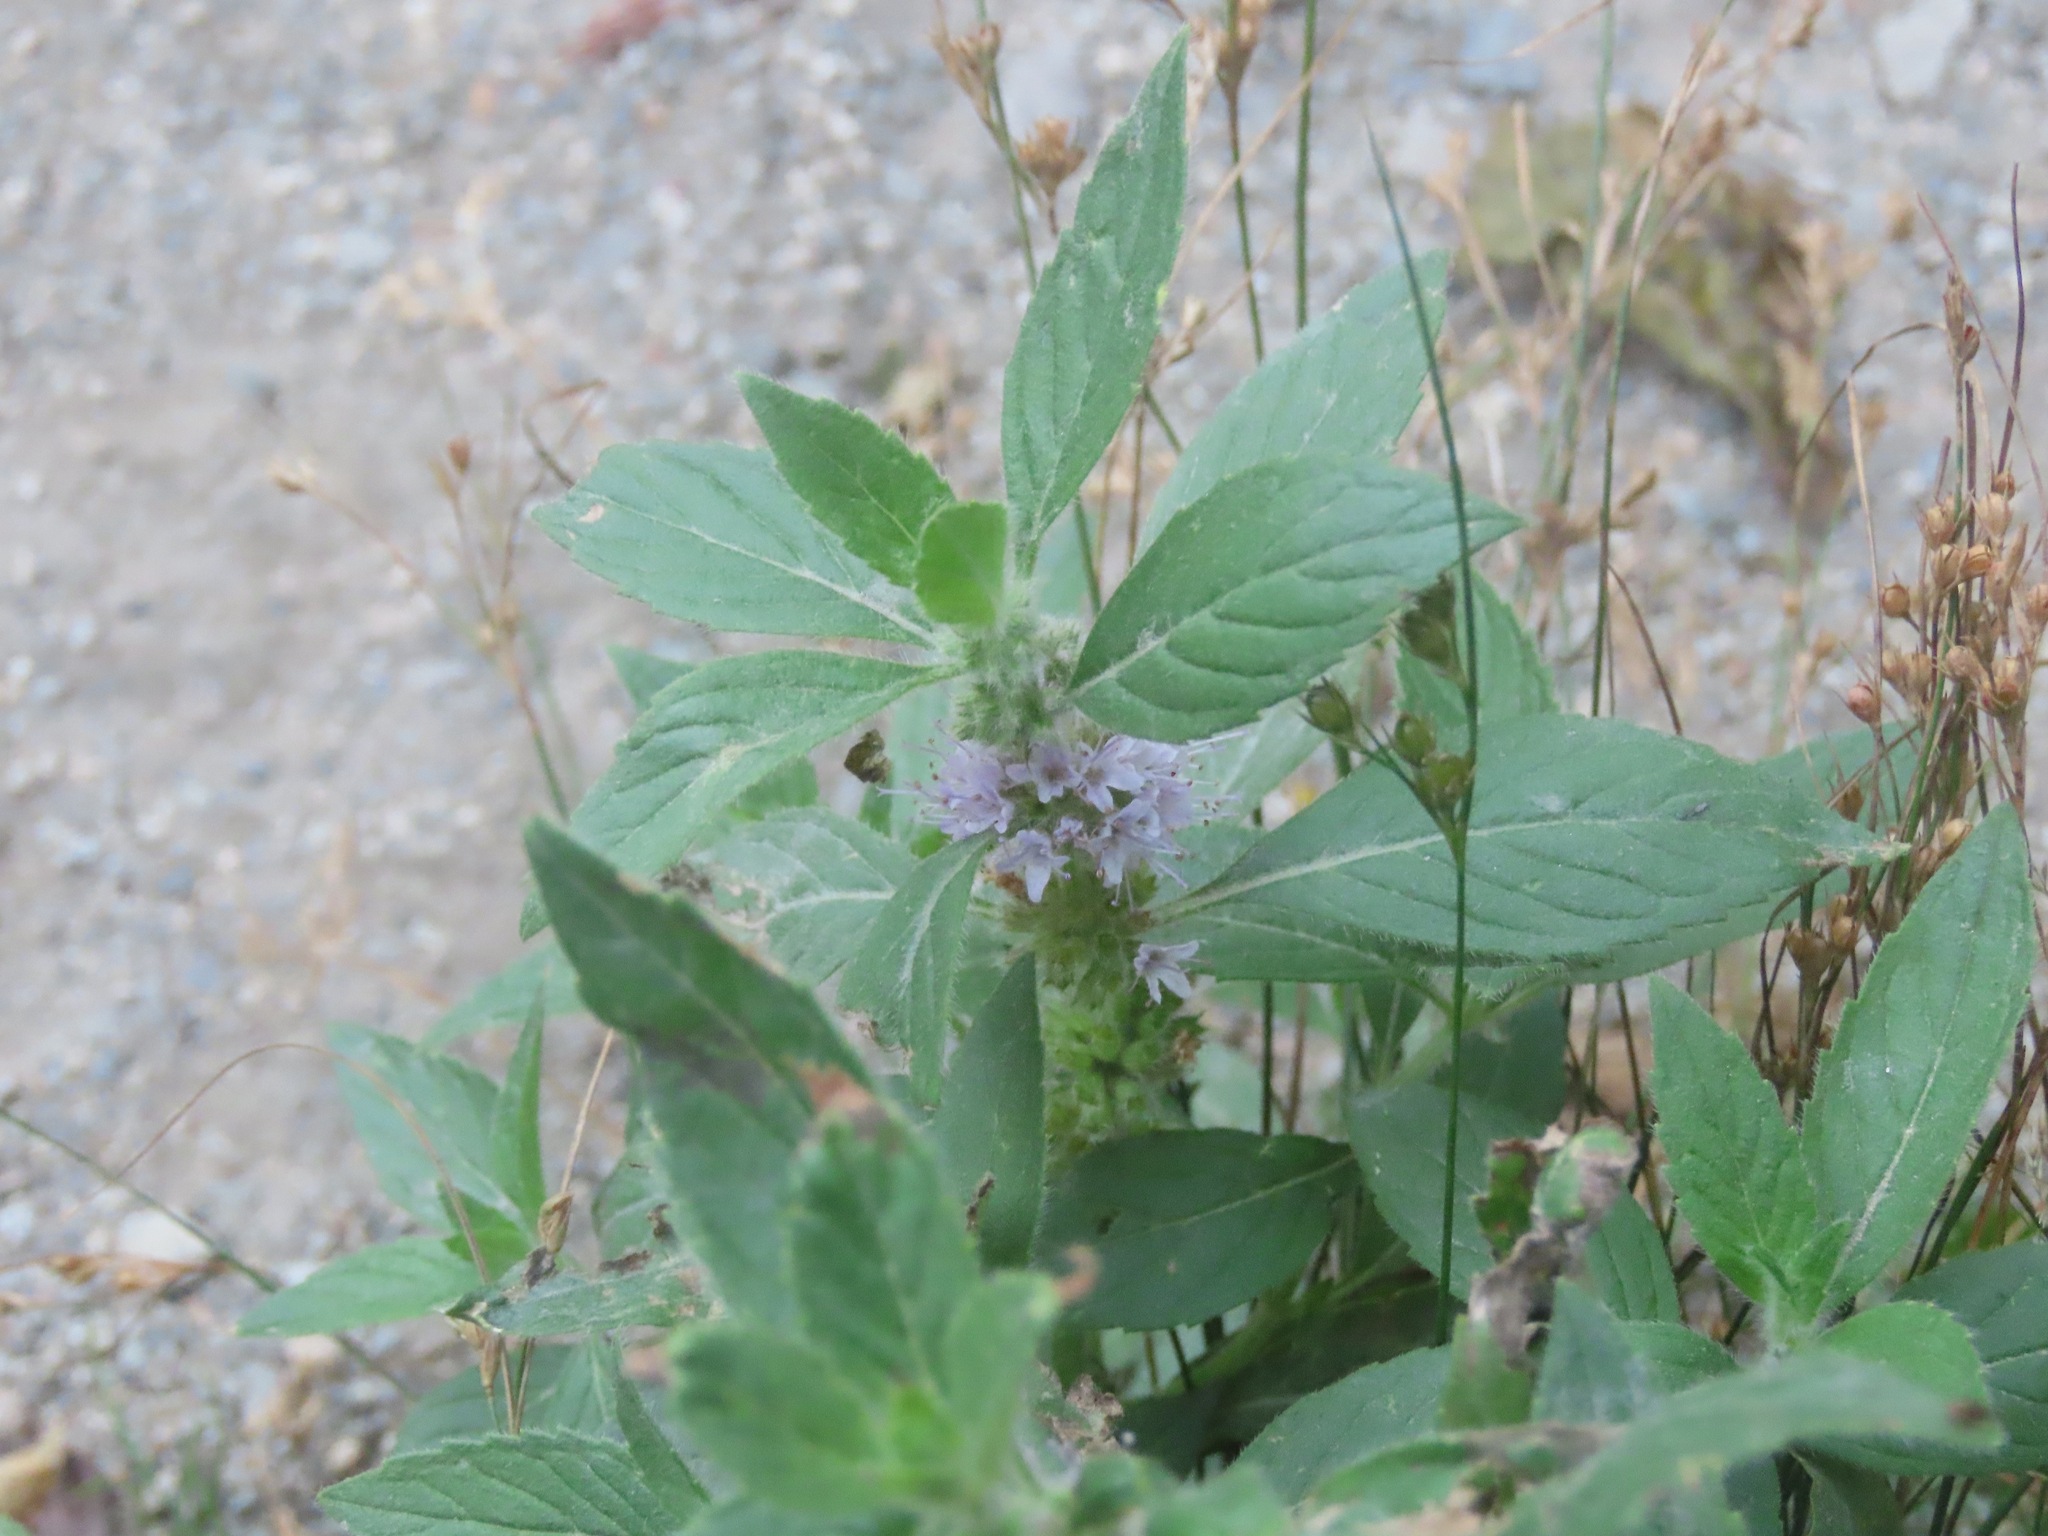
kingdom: Plantae
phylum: Tracheophyta
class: Magnoliopsida
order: Lamiales
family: Lamiaceae
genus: Mentha
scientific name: Mentha canadensis
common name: American corn mint
